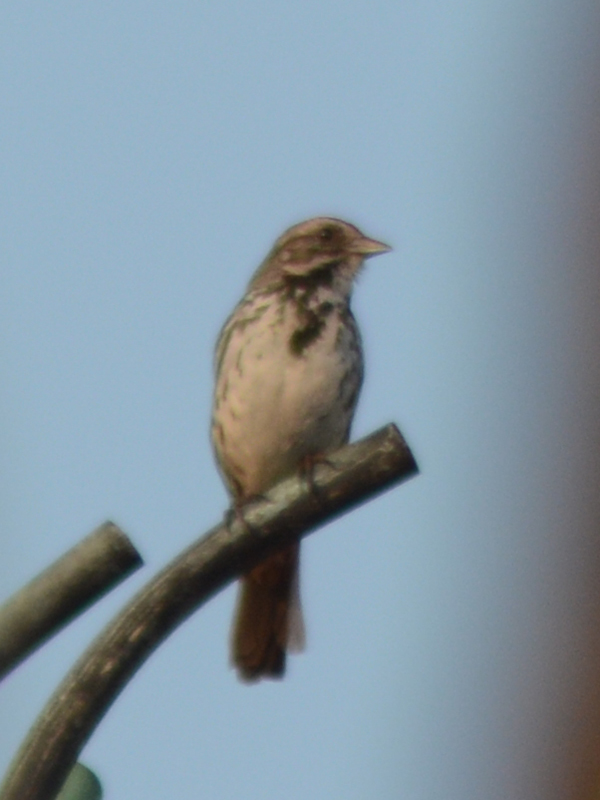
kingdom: Animalia
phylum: Chordata
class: Aves
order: Passeriformes
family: Passerellidae
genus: Melospiza
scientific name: Melospiza melodia
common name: Song sparrow
